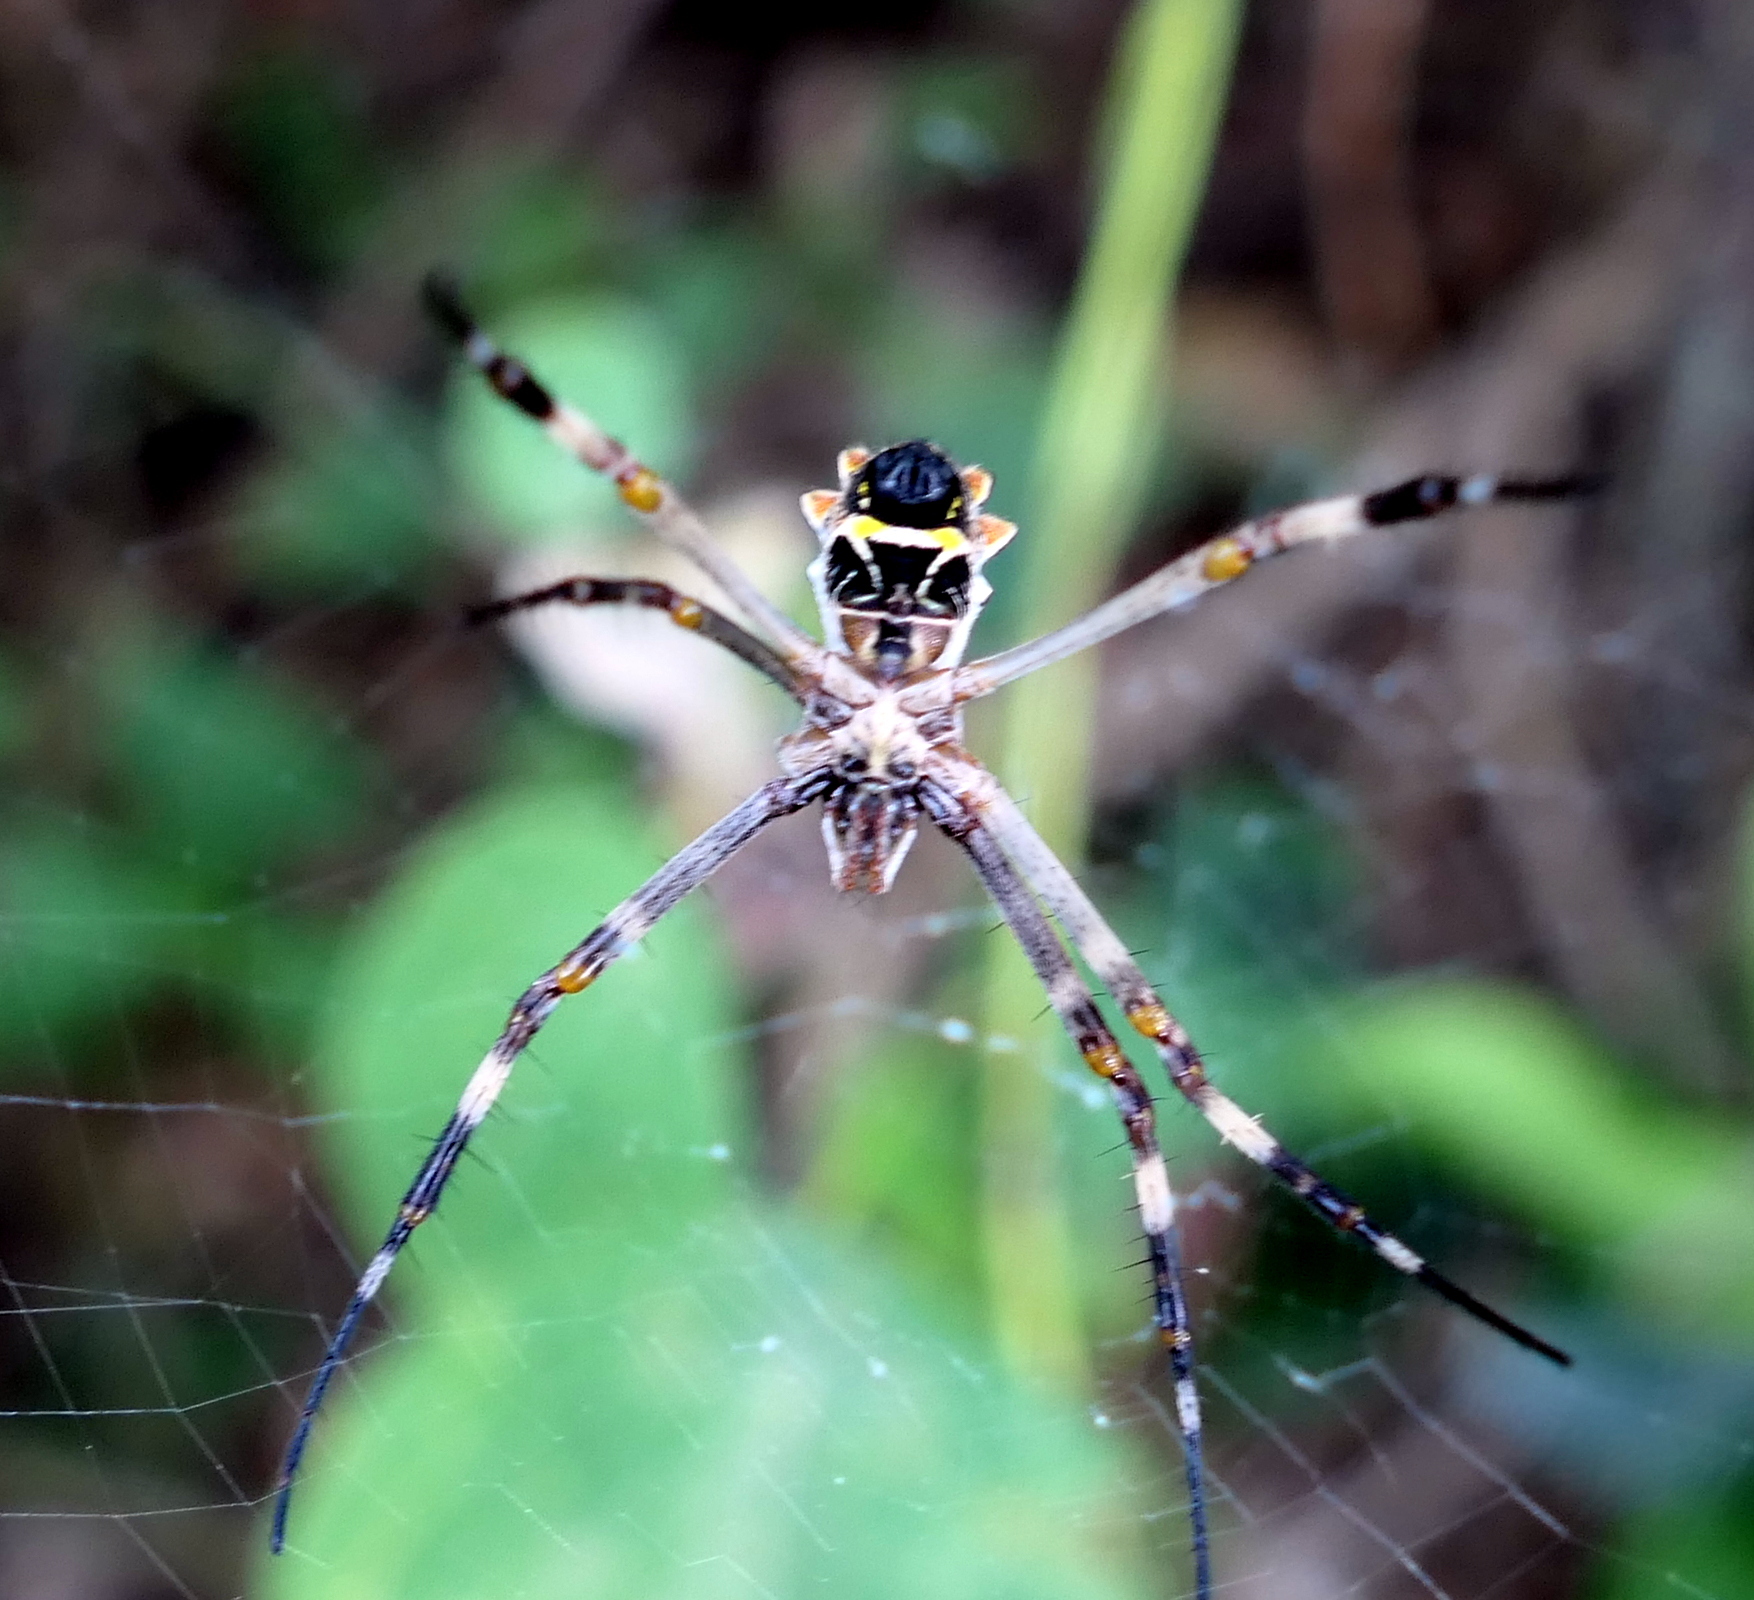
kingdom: Animalia
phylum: Arthropoda
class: Arachnida
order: Araneae
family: Araneidae
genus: Argiope
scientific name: Argiope argentata
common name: Orb weavers
